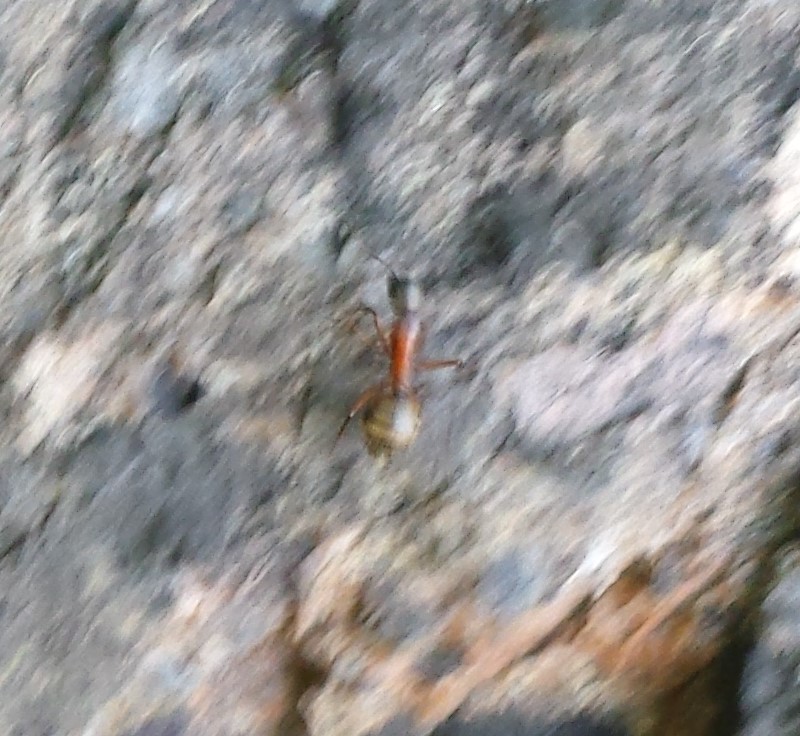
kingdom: Animalia
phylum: Arthropoda
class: Insecta
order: Hymenoptera
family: Formicidae
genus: Camponotus
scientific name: Camponotus chromaiodes
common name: Red carpenter ant
